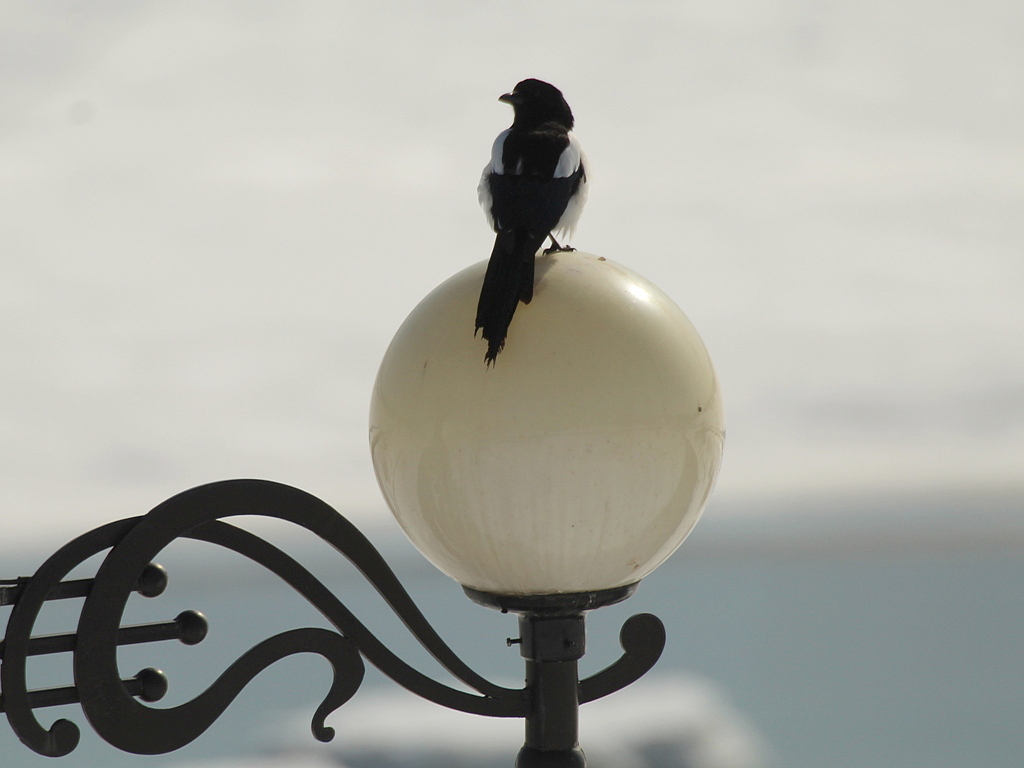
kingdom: Animalia
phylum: Chordata
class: Aves
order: Passeriformes
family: Corvidae
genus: Pica
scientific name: Pica pica
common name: Eurasian magpie
